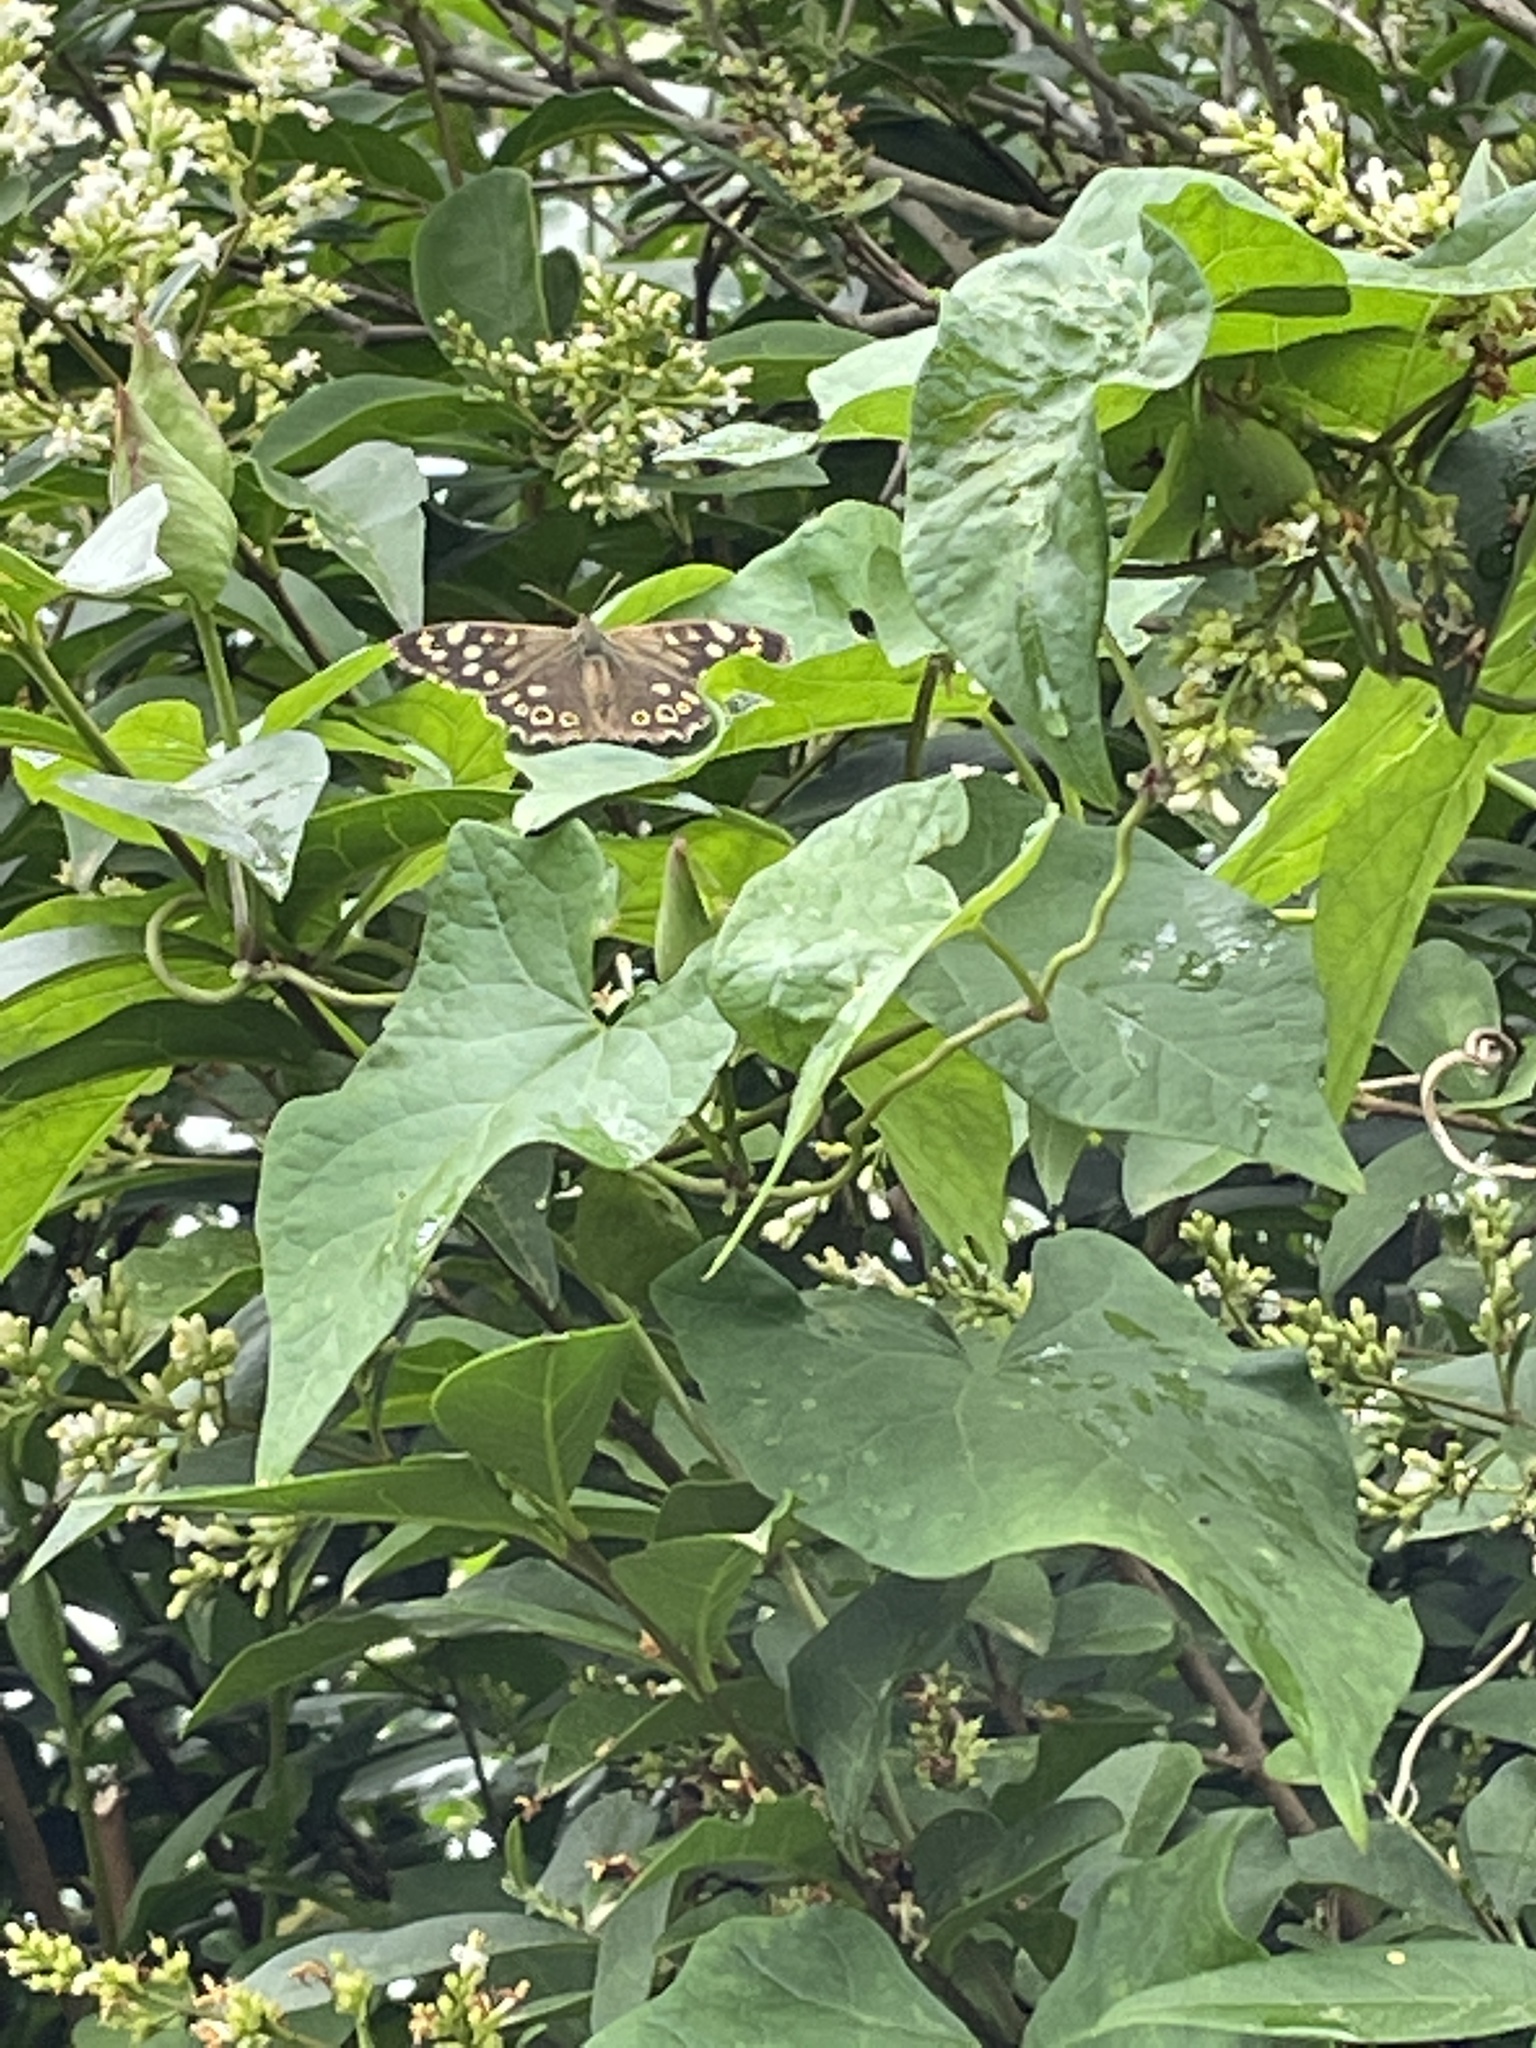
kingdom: Animalia
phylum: Arthropoda
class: Insecta
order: Lepidoptera
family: Nymphalidae
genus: Pararge
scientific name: Pararge aegeria
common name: Speckled wood
